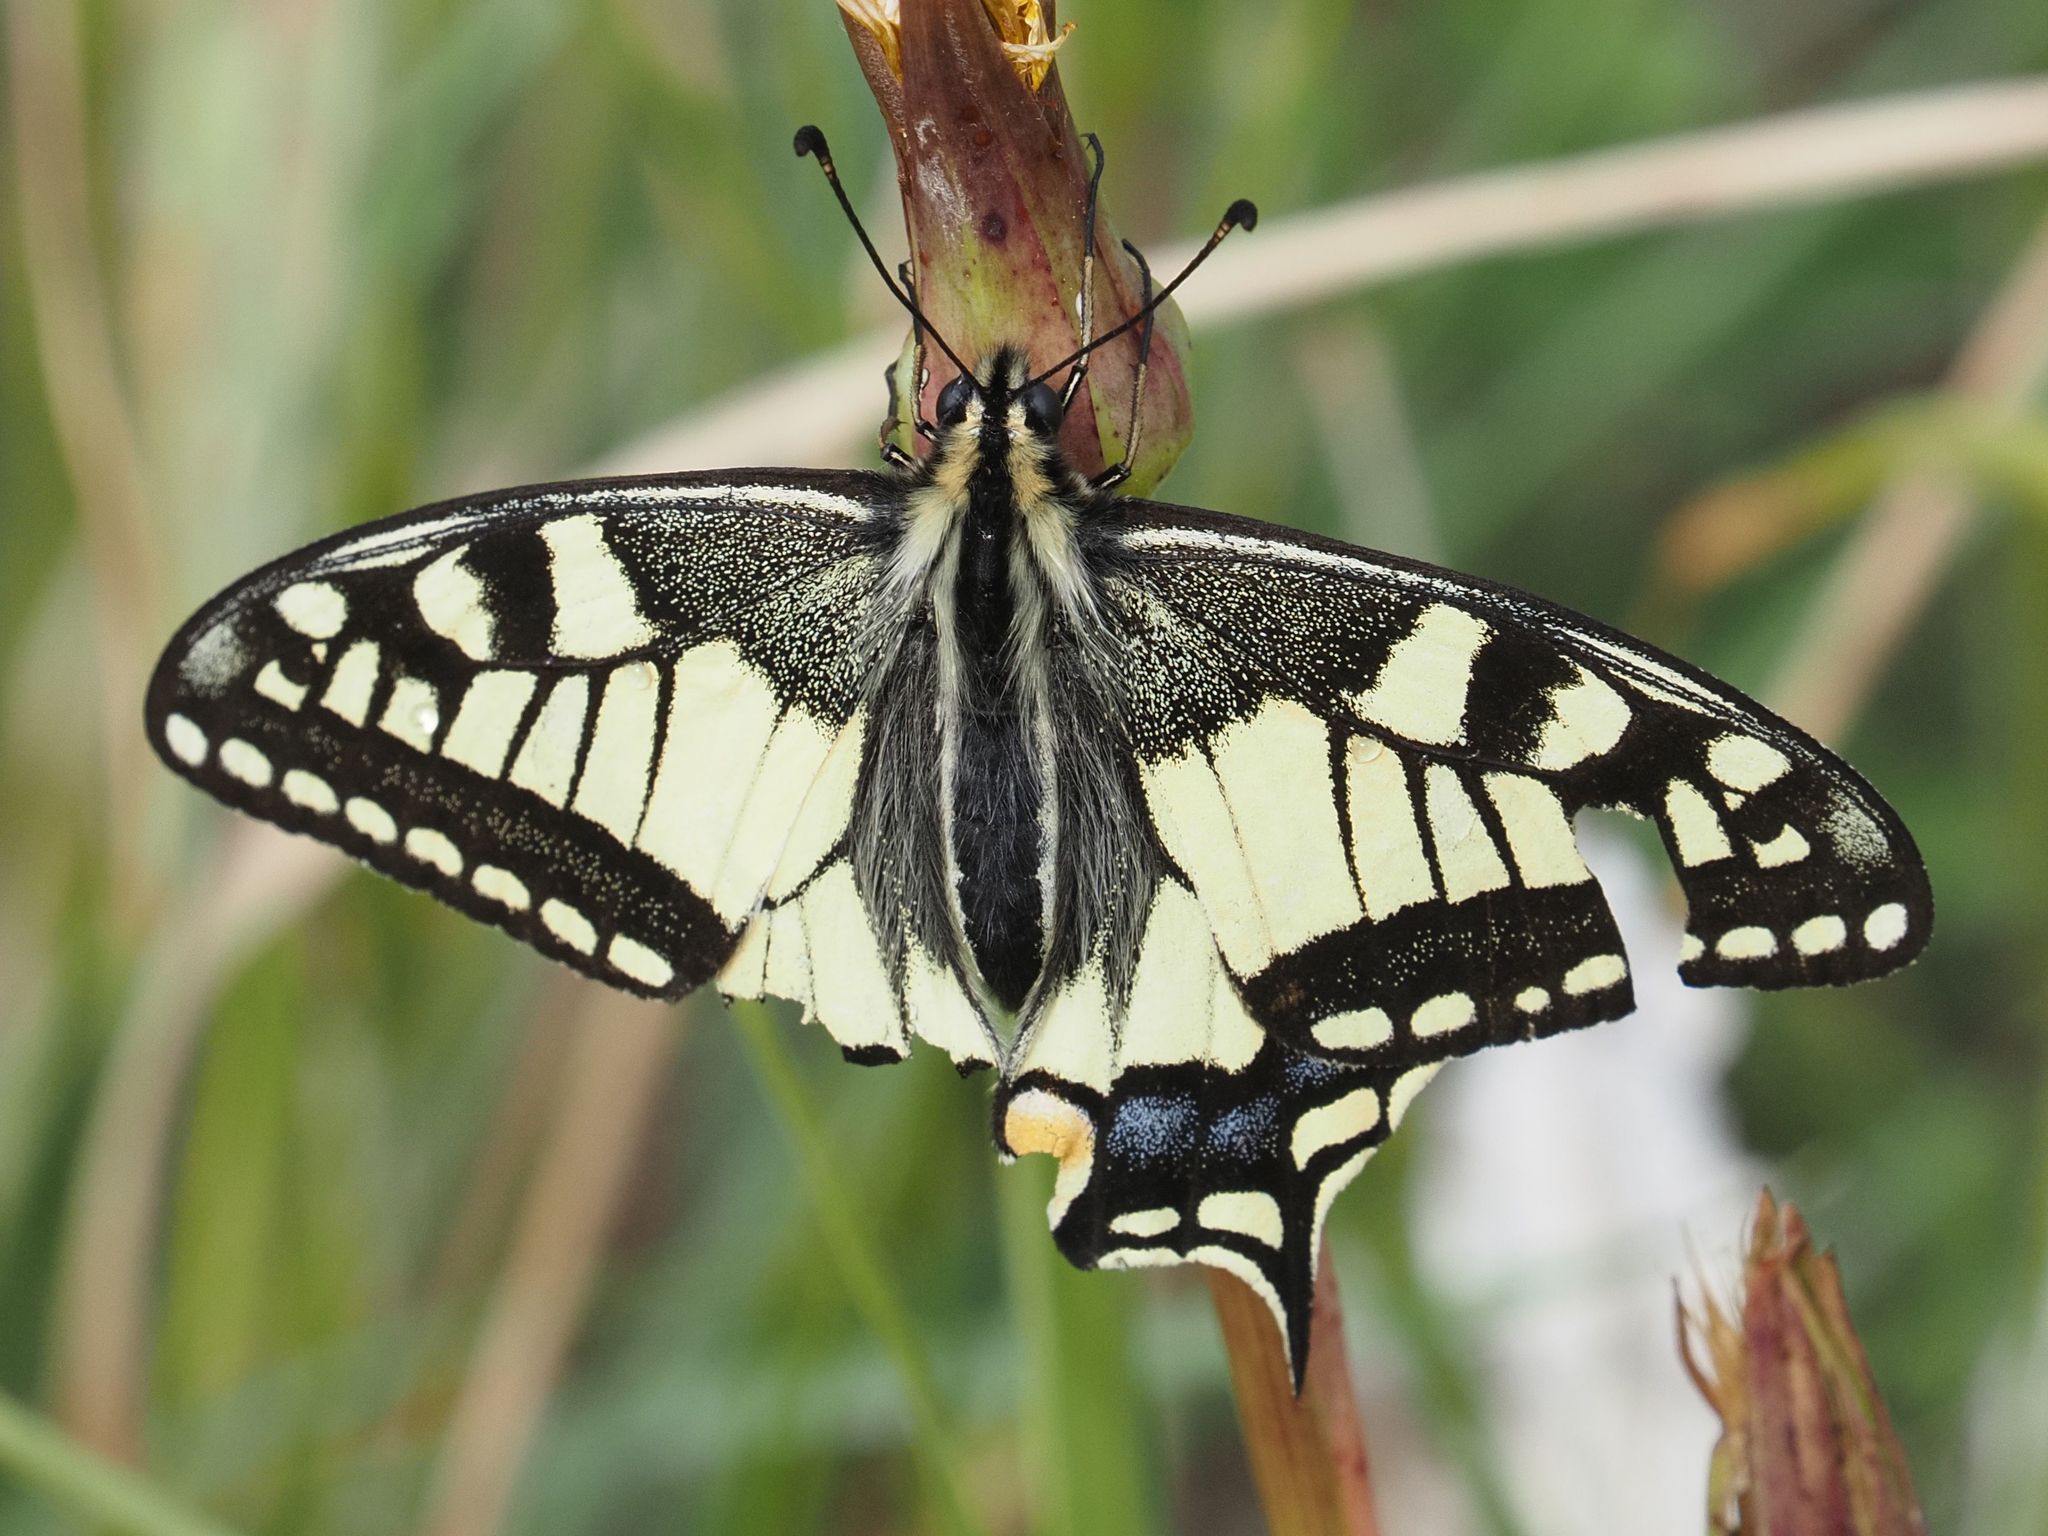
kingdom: Animalia
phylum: Arthropoda
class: Insecta
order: Lepidoptera
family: Papilionidae
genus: Papilio
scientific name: Papilio machaon
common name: Swallowtail
